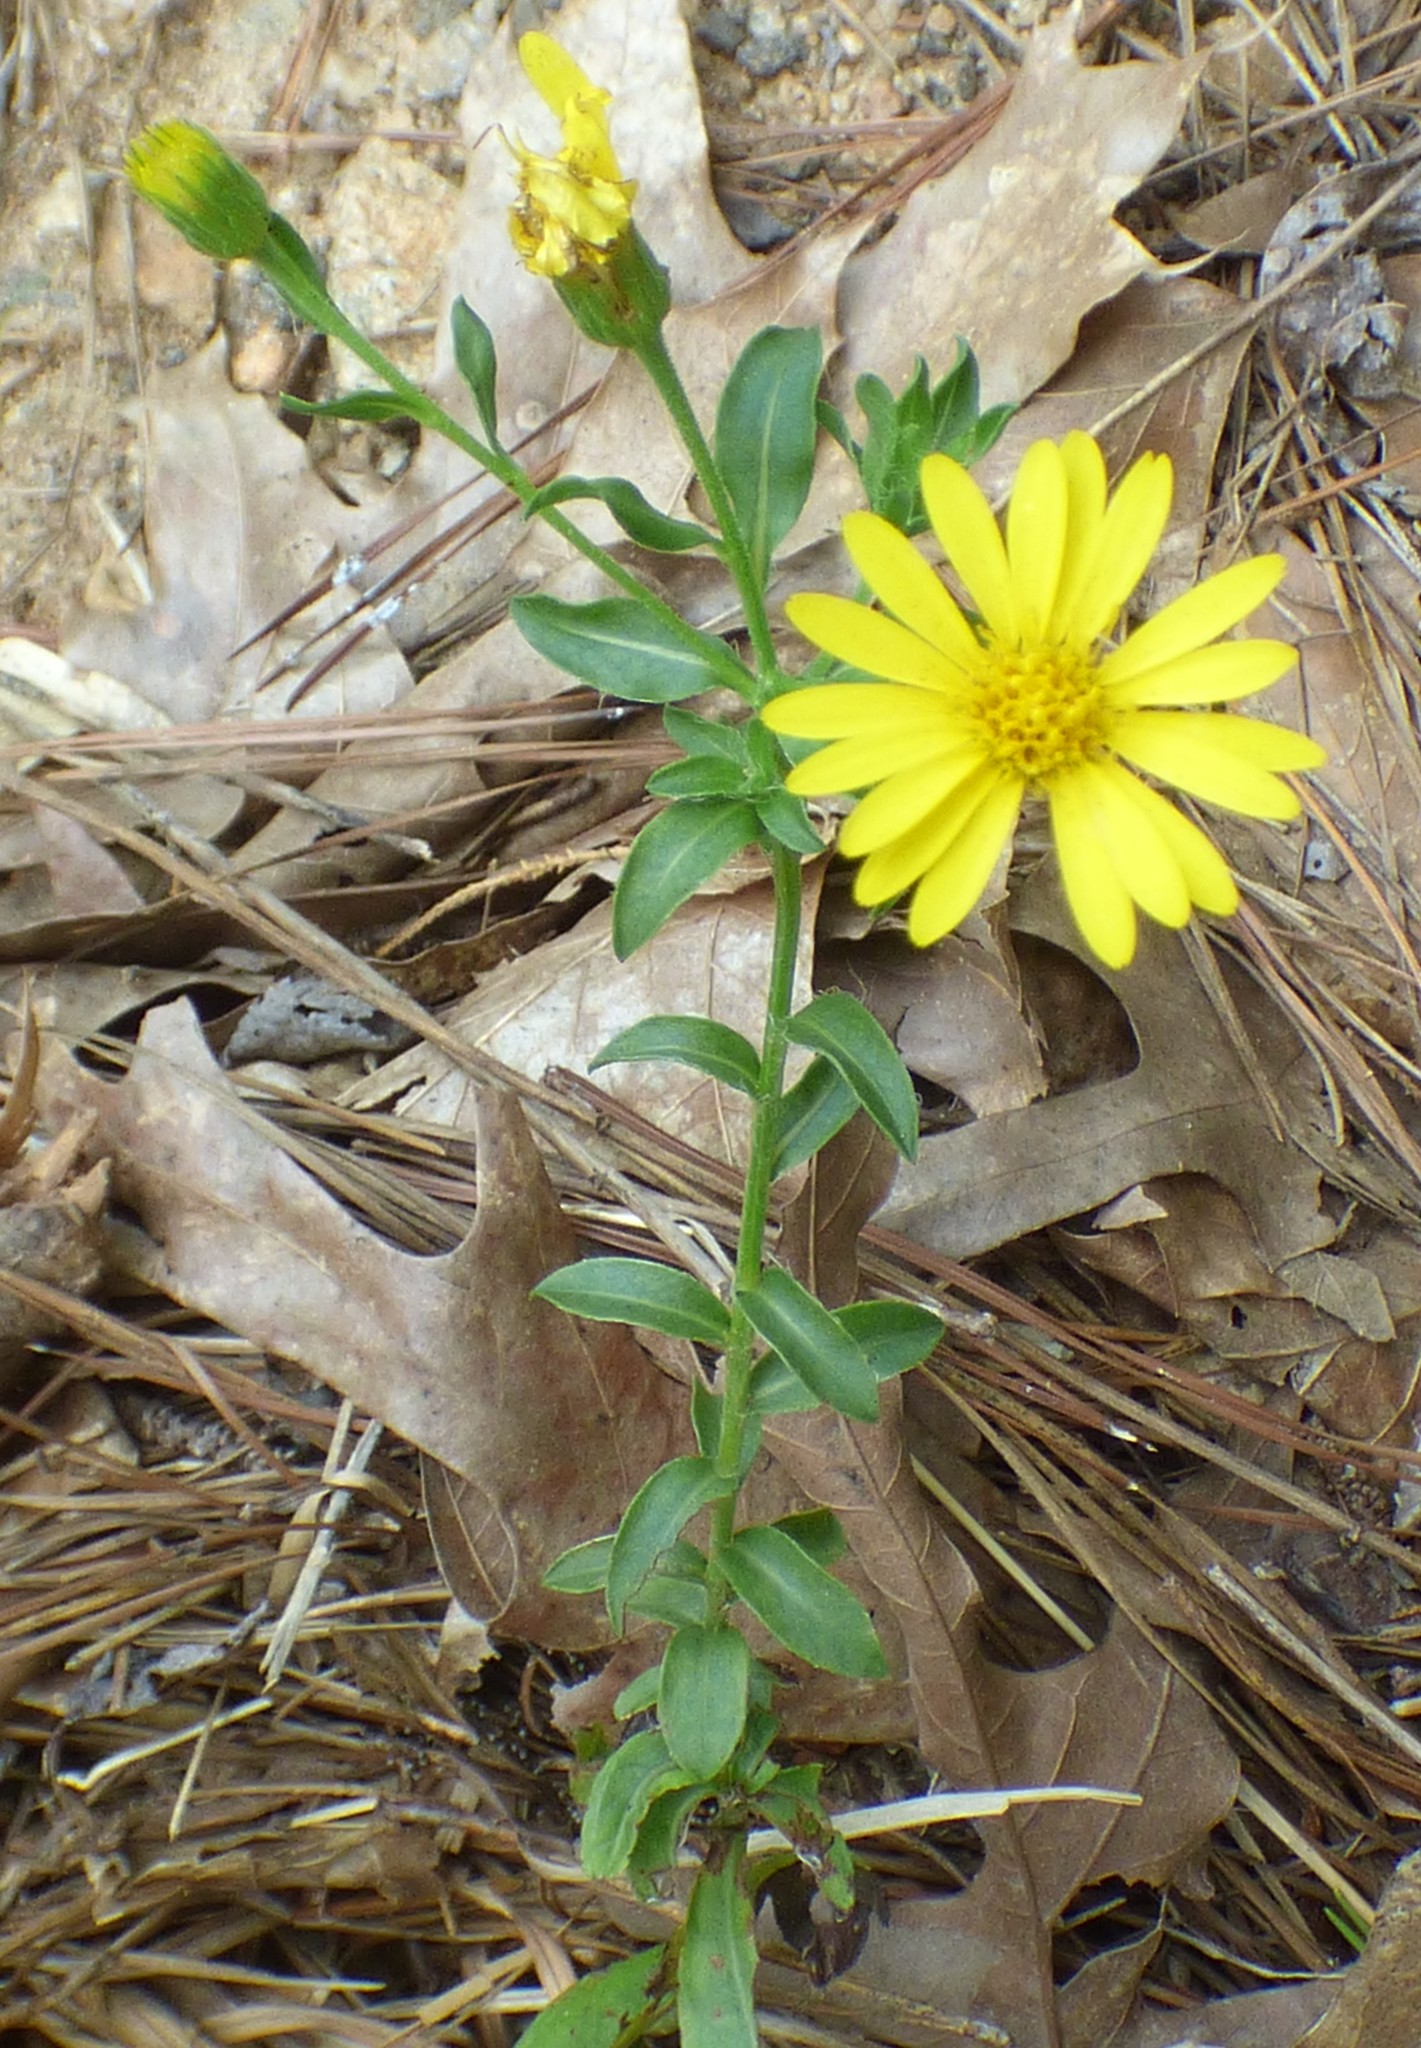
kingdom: Plantae
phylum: Tracheophyta
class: Magnoliopsida
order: Asterales
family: Asteraceae
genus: Chrysopsis
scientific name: Chrysopsis mariana
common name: Maryland golden-aster
